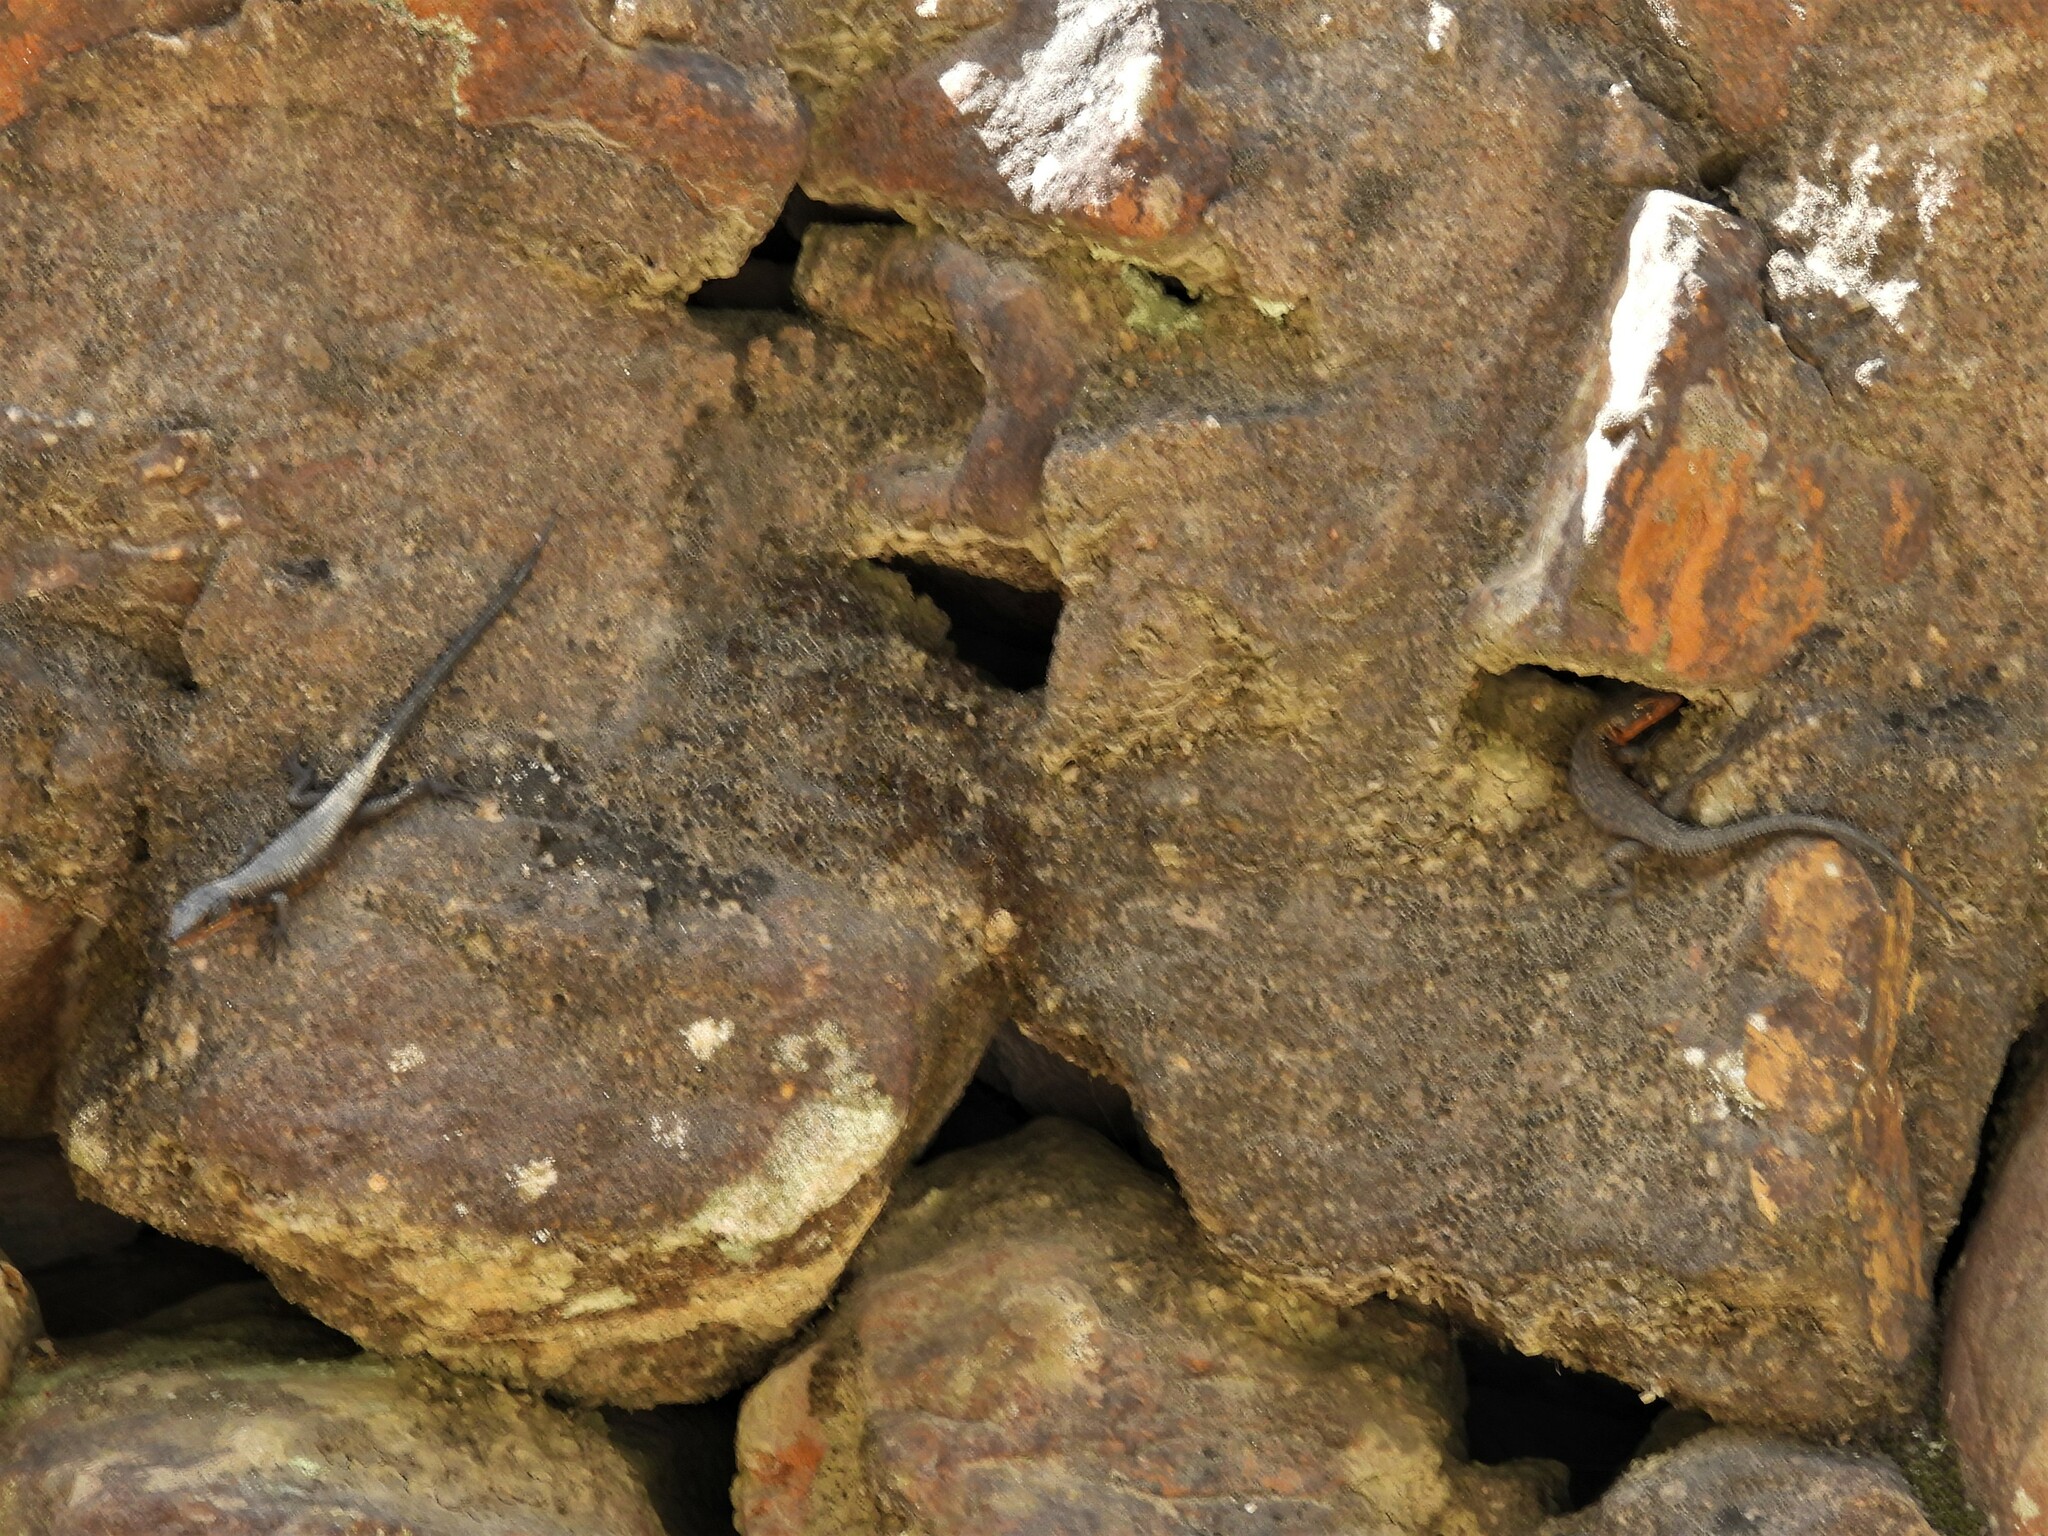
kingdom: Animalia
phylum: Chordata
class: Squamata
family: Cordylidae
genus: Ninurta
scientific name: Ninurta coeruleopunctatus
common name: Blue-spotted girdled lizard
